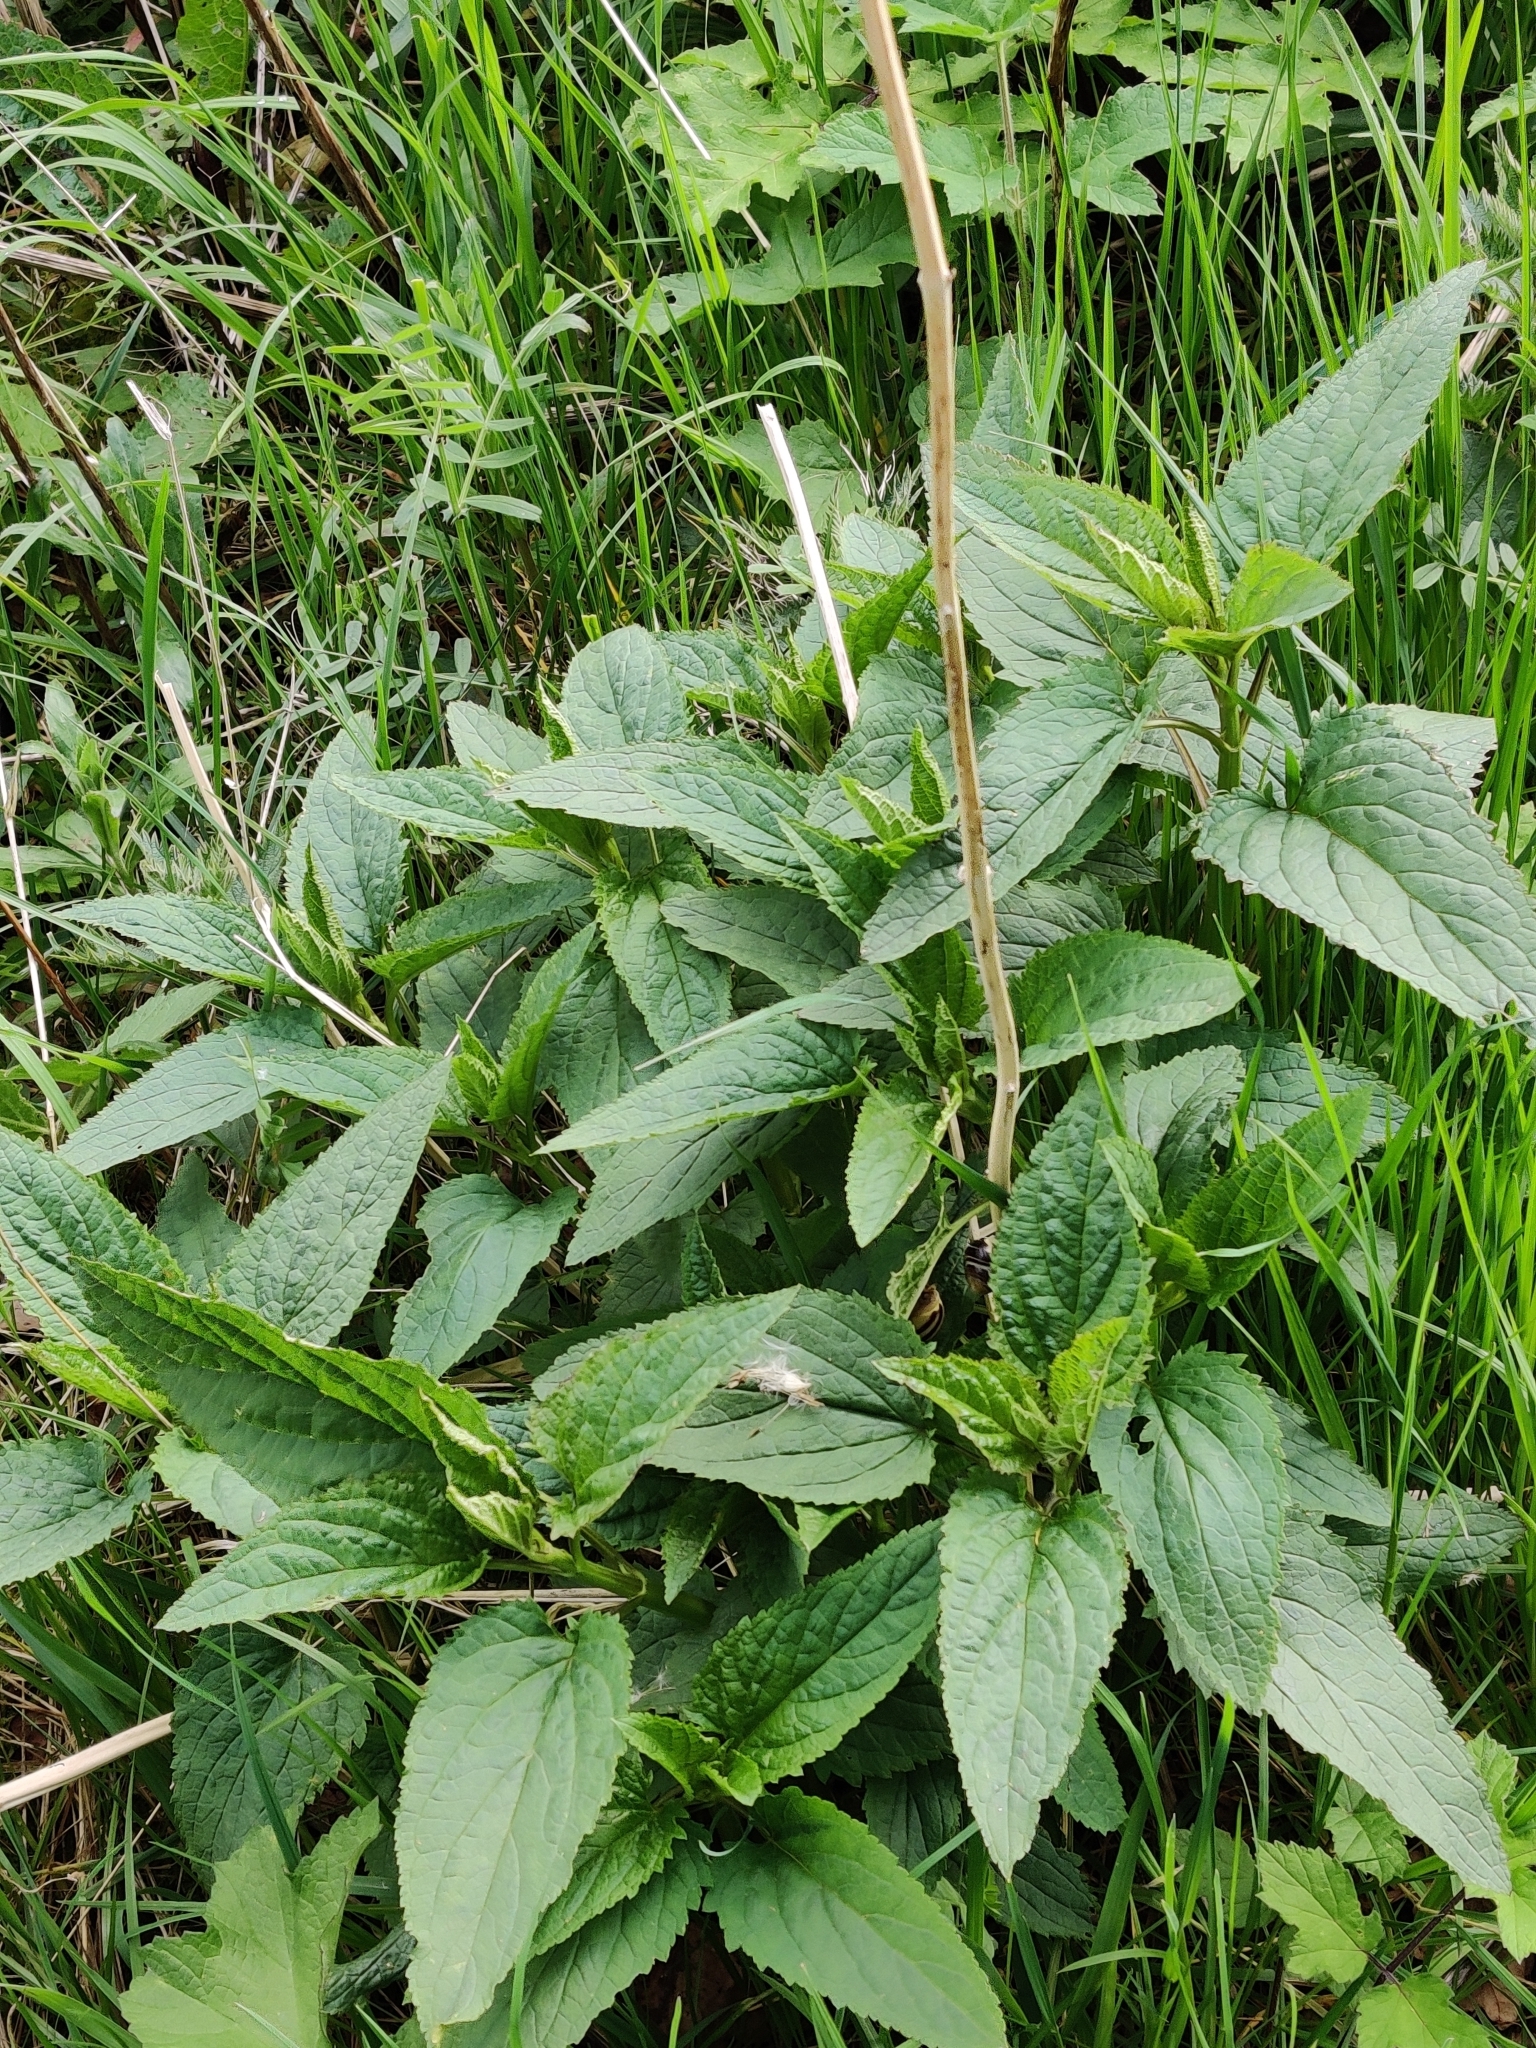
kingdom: Plantae
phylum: Tracheophyta
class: Magnoliopsida
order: Lamiales
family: Scrophulariaceae
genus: Scrophularia
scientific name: Scrophularia nodosa
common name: Common figwort
